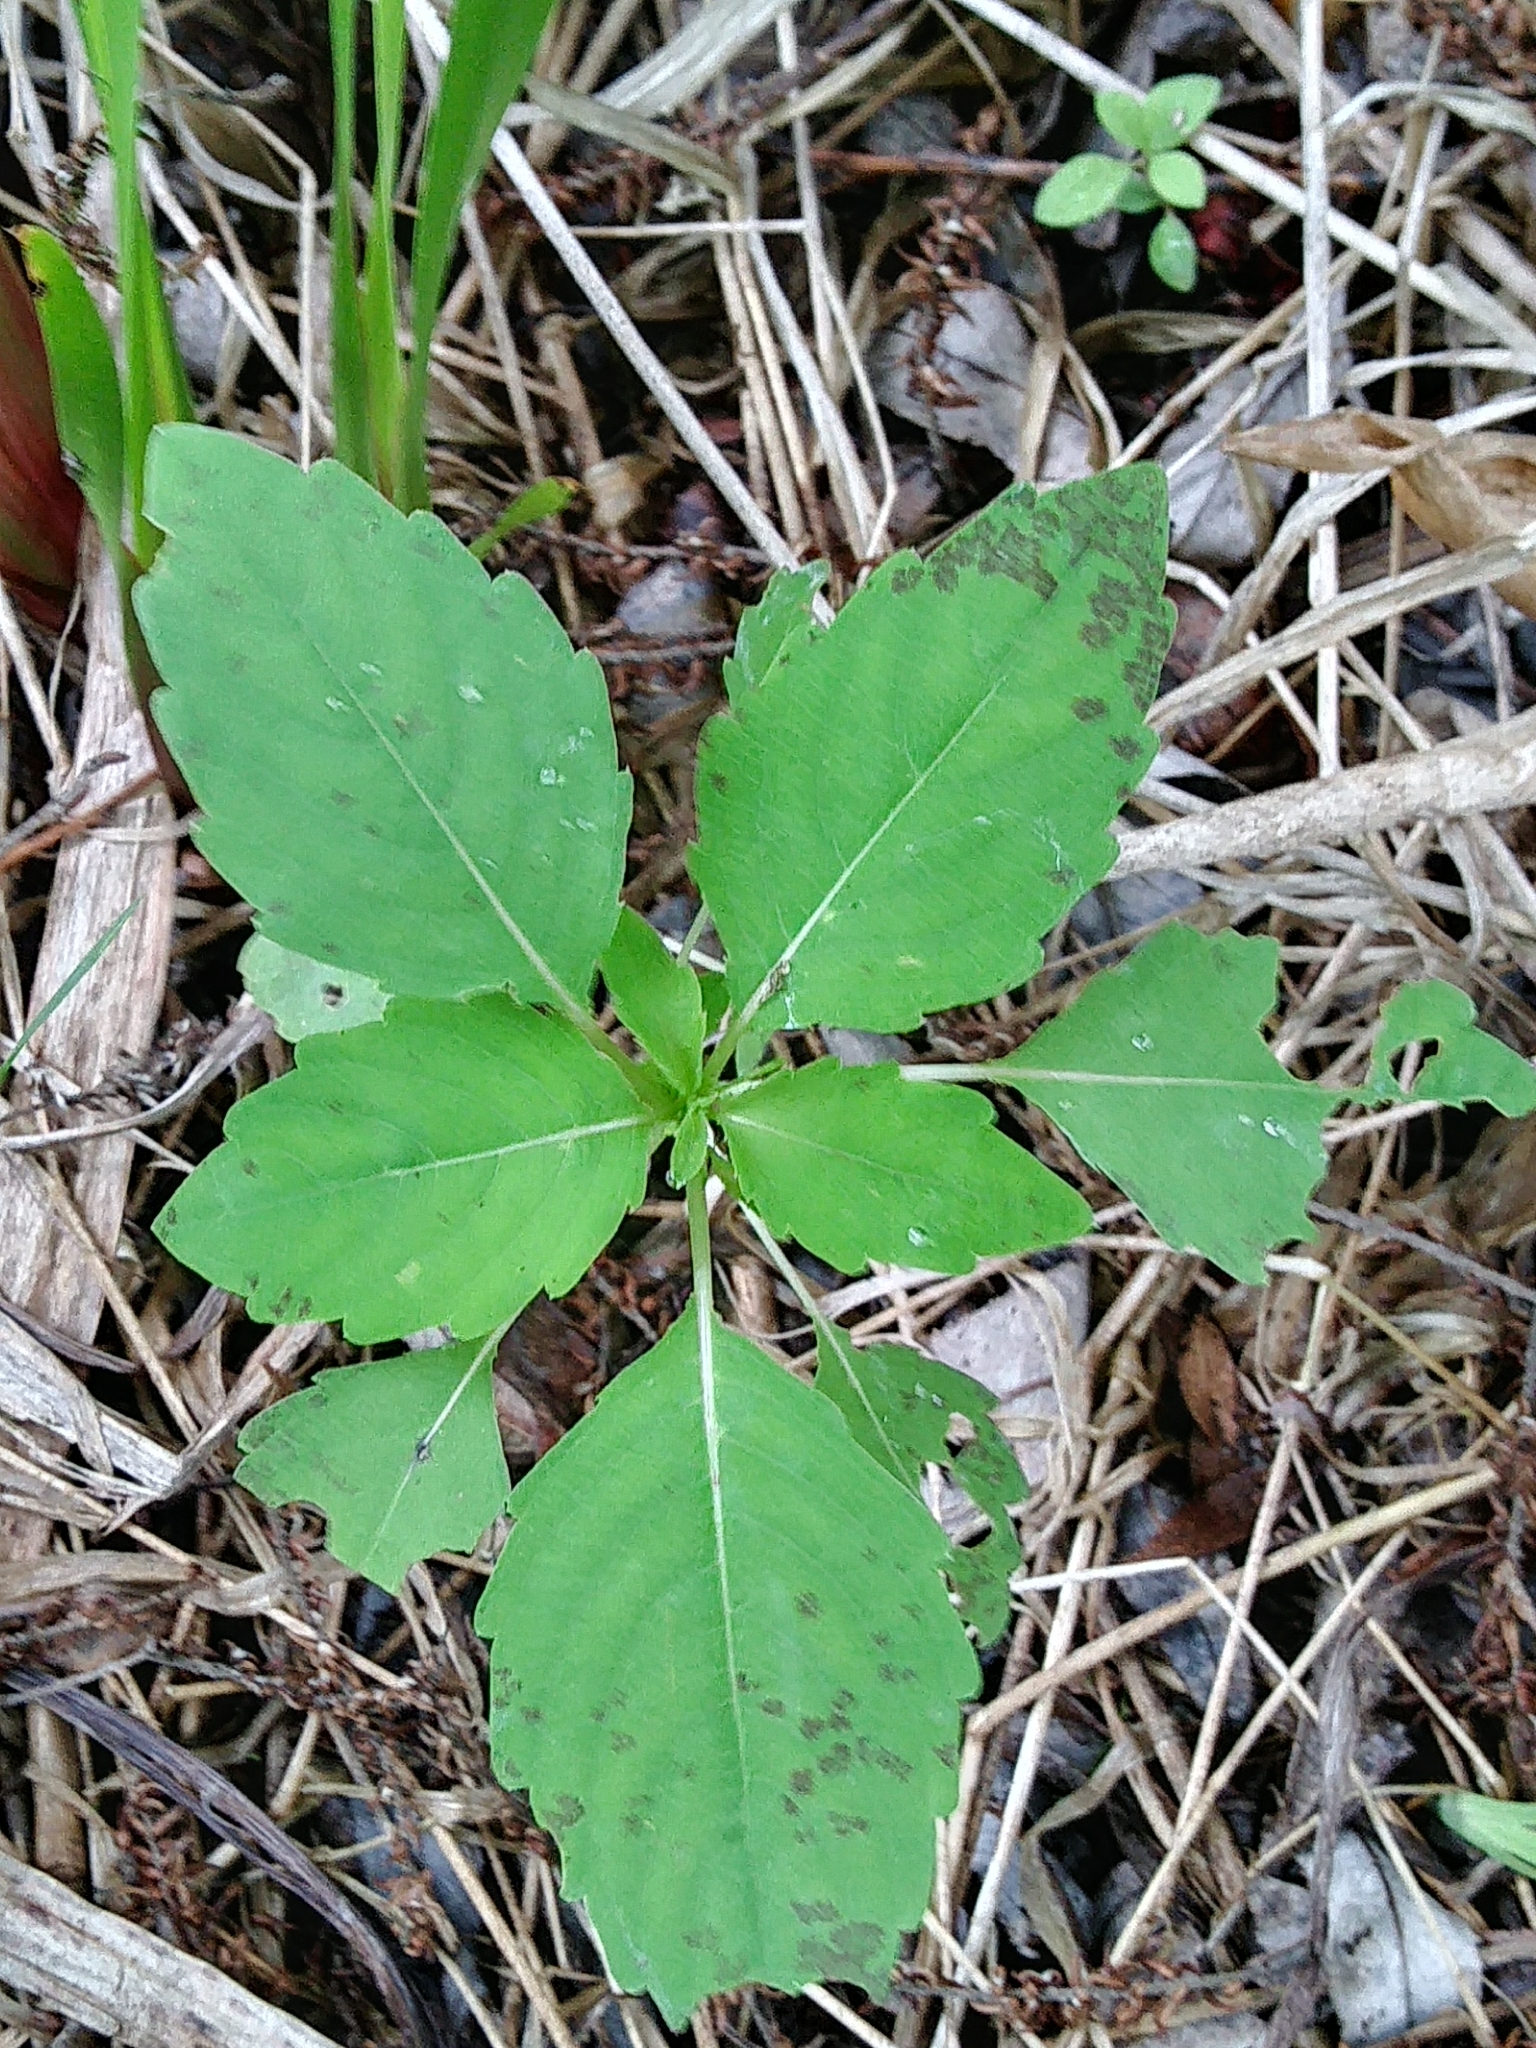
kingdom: Plantae
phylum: Tracheophyta
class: Magnoliopsida
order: Ericales
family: Balsaminaceae
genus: Impatiens
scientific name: Impatiens
